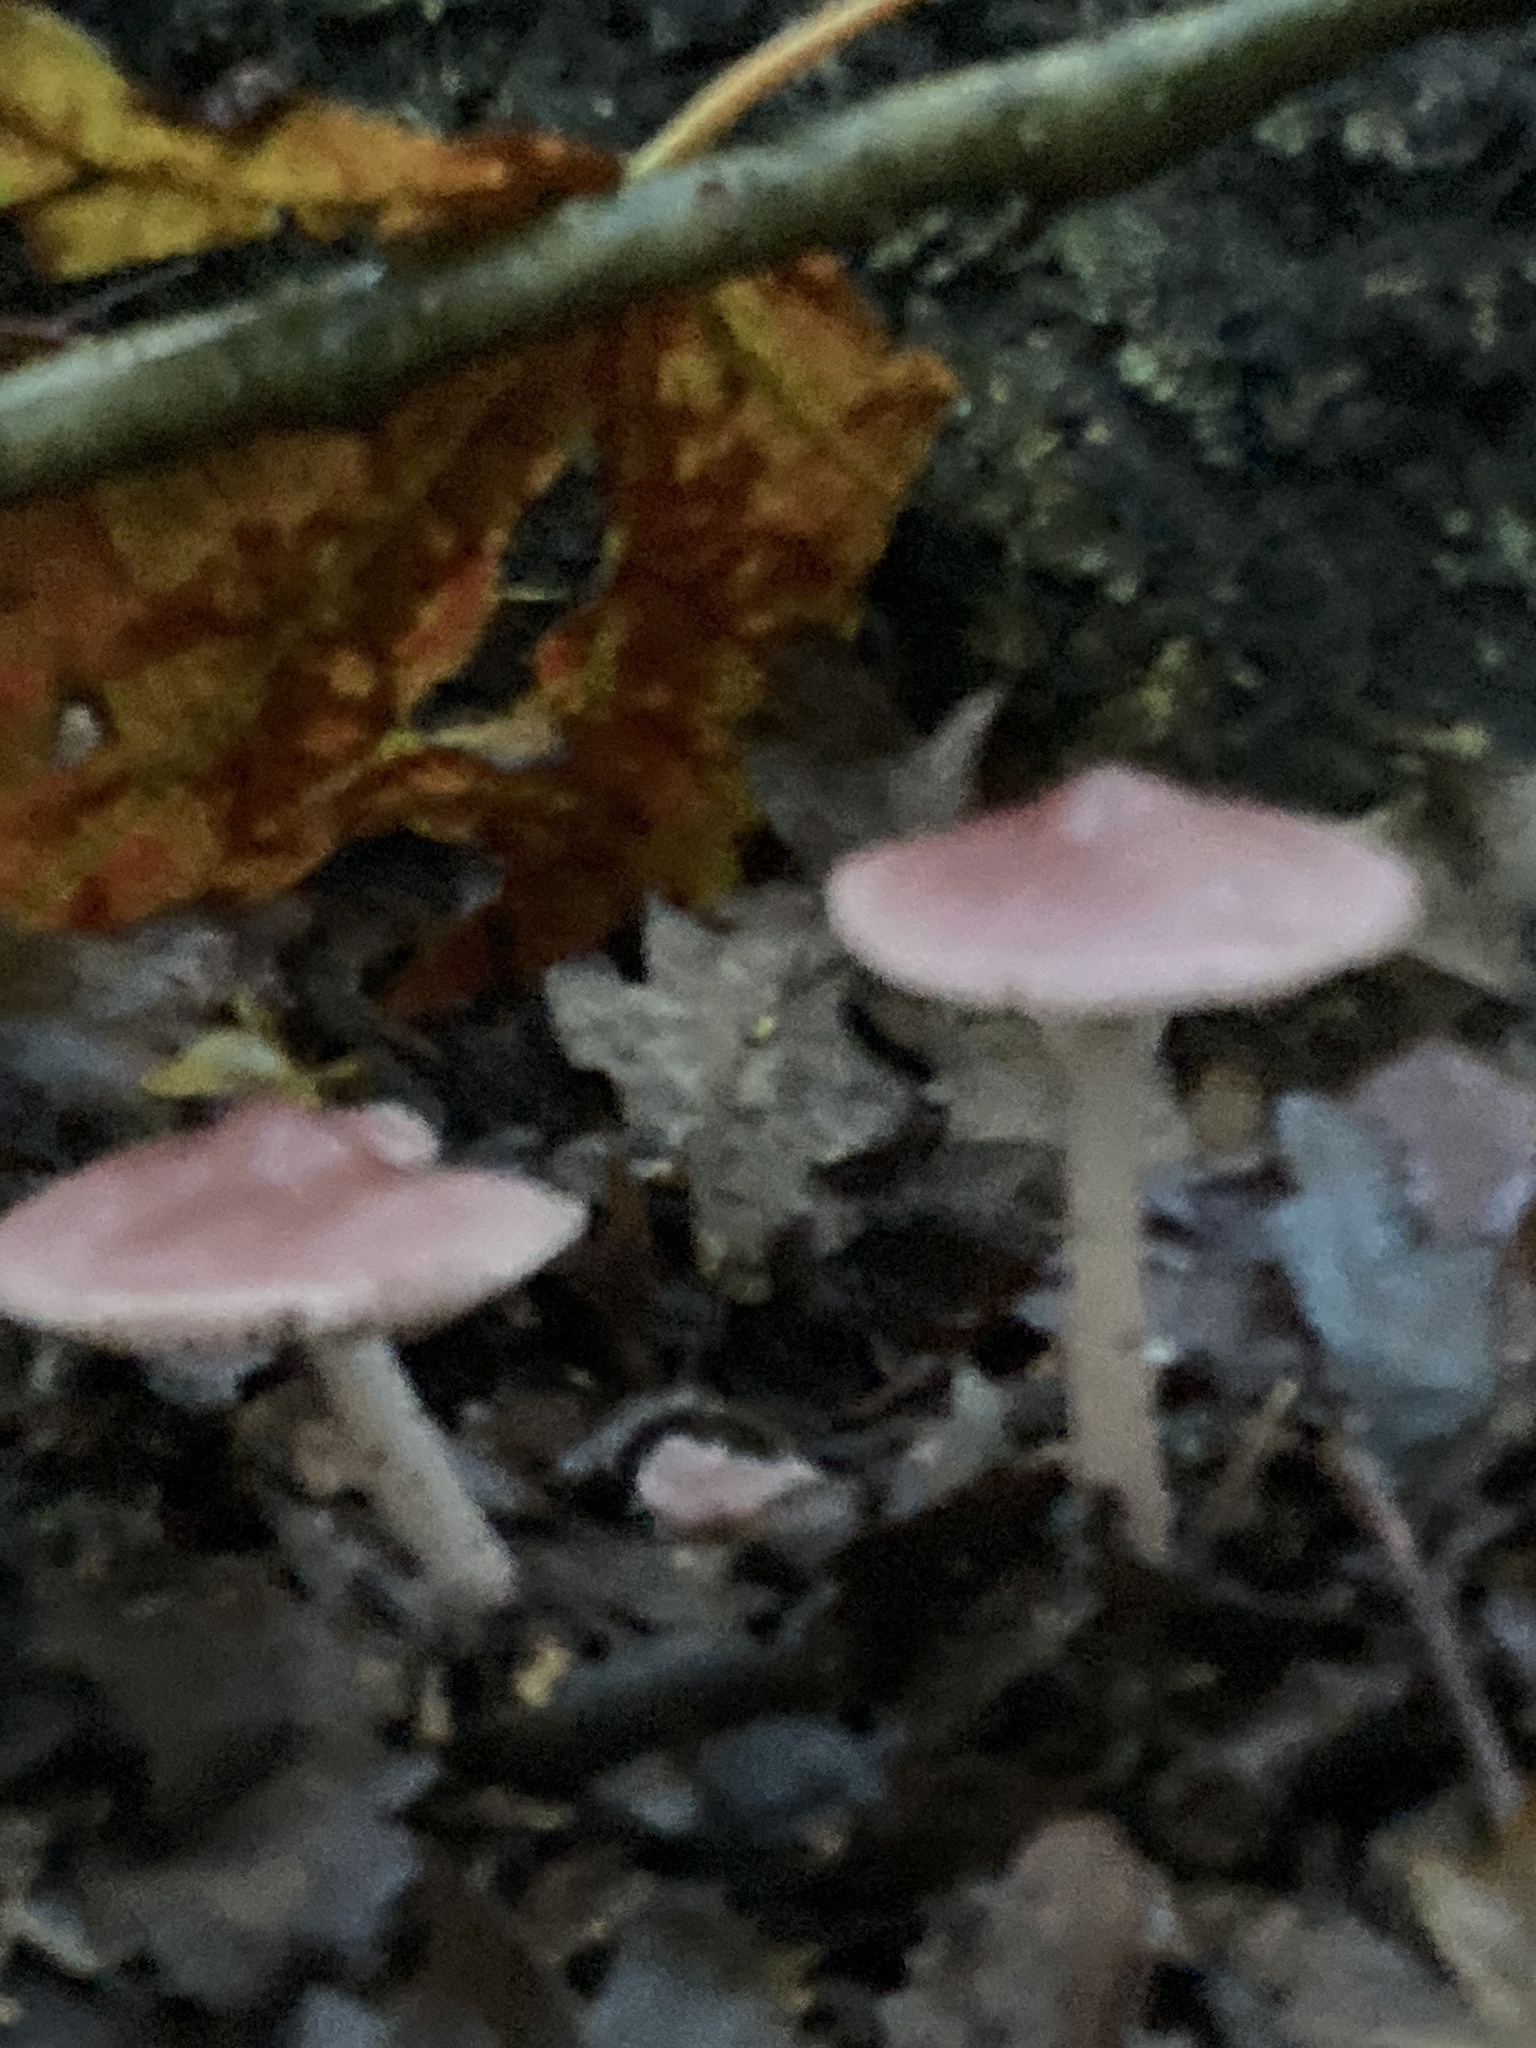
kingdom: Fungi
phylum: Basidiomycota
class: Agaricomycetes
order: Agaricales
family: Mycenaceae
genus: Mycena
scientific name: Mycena rosea
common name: Rosy bonnet
